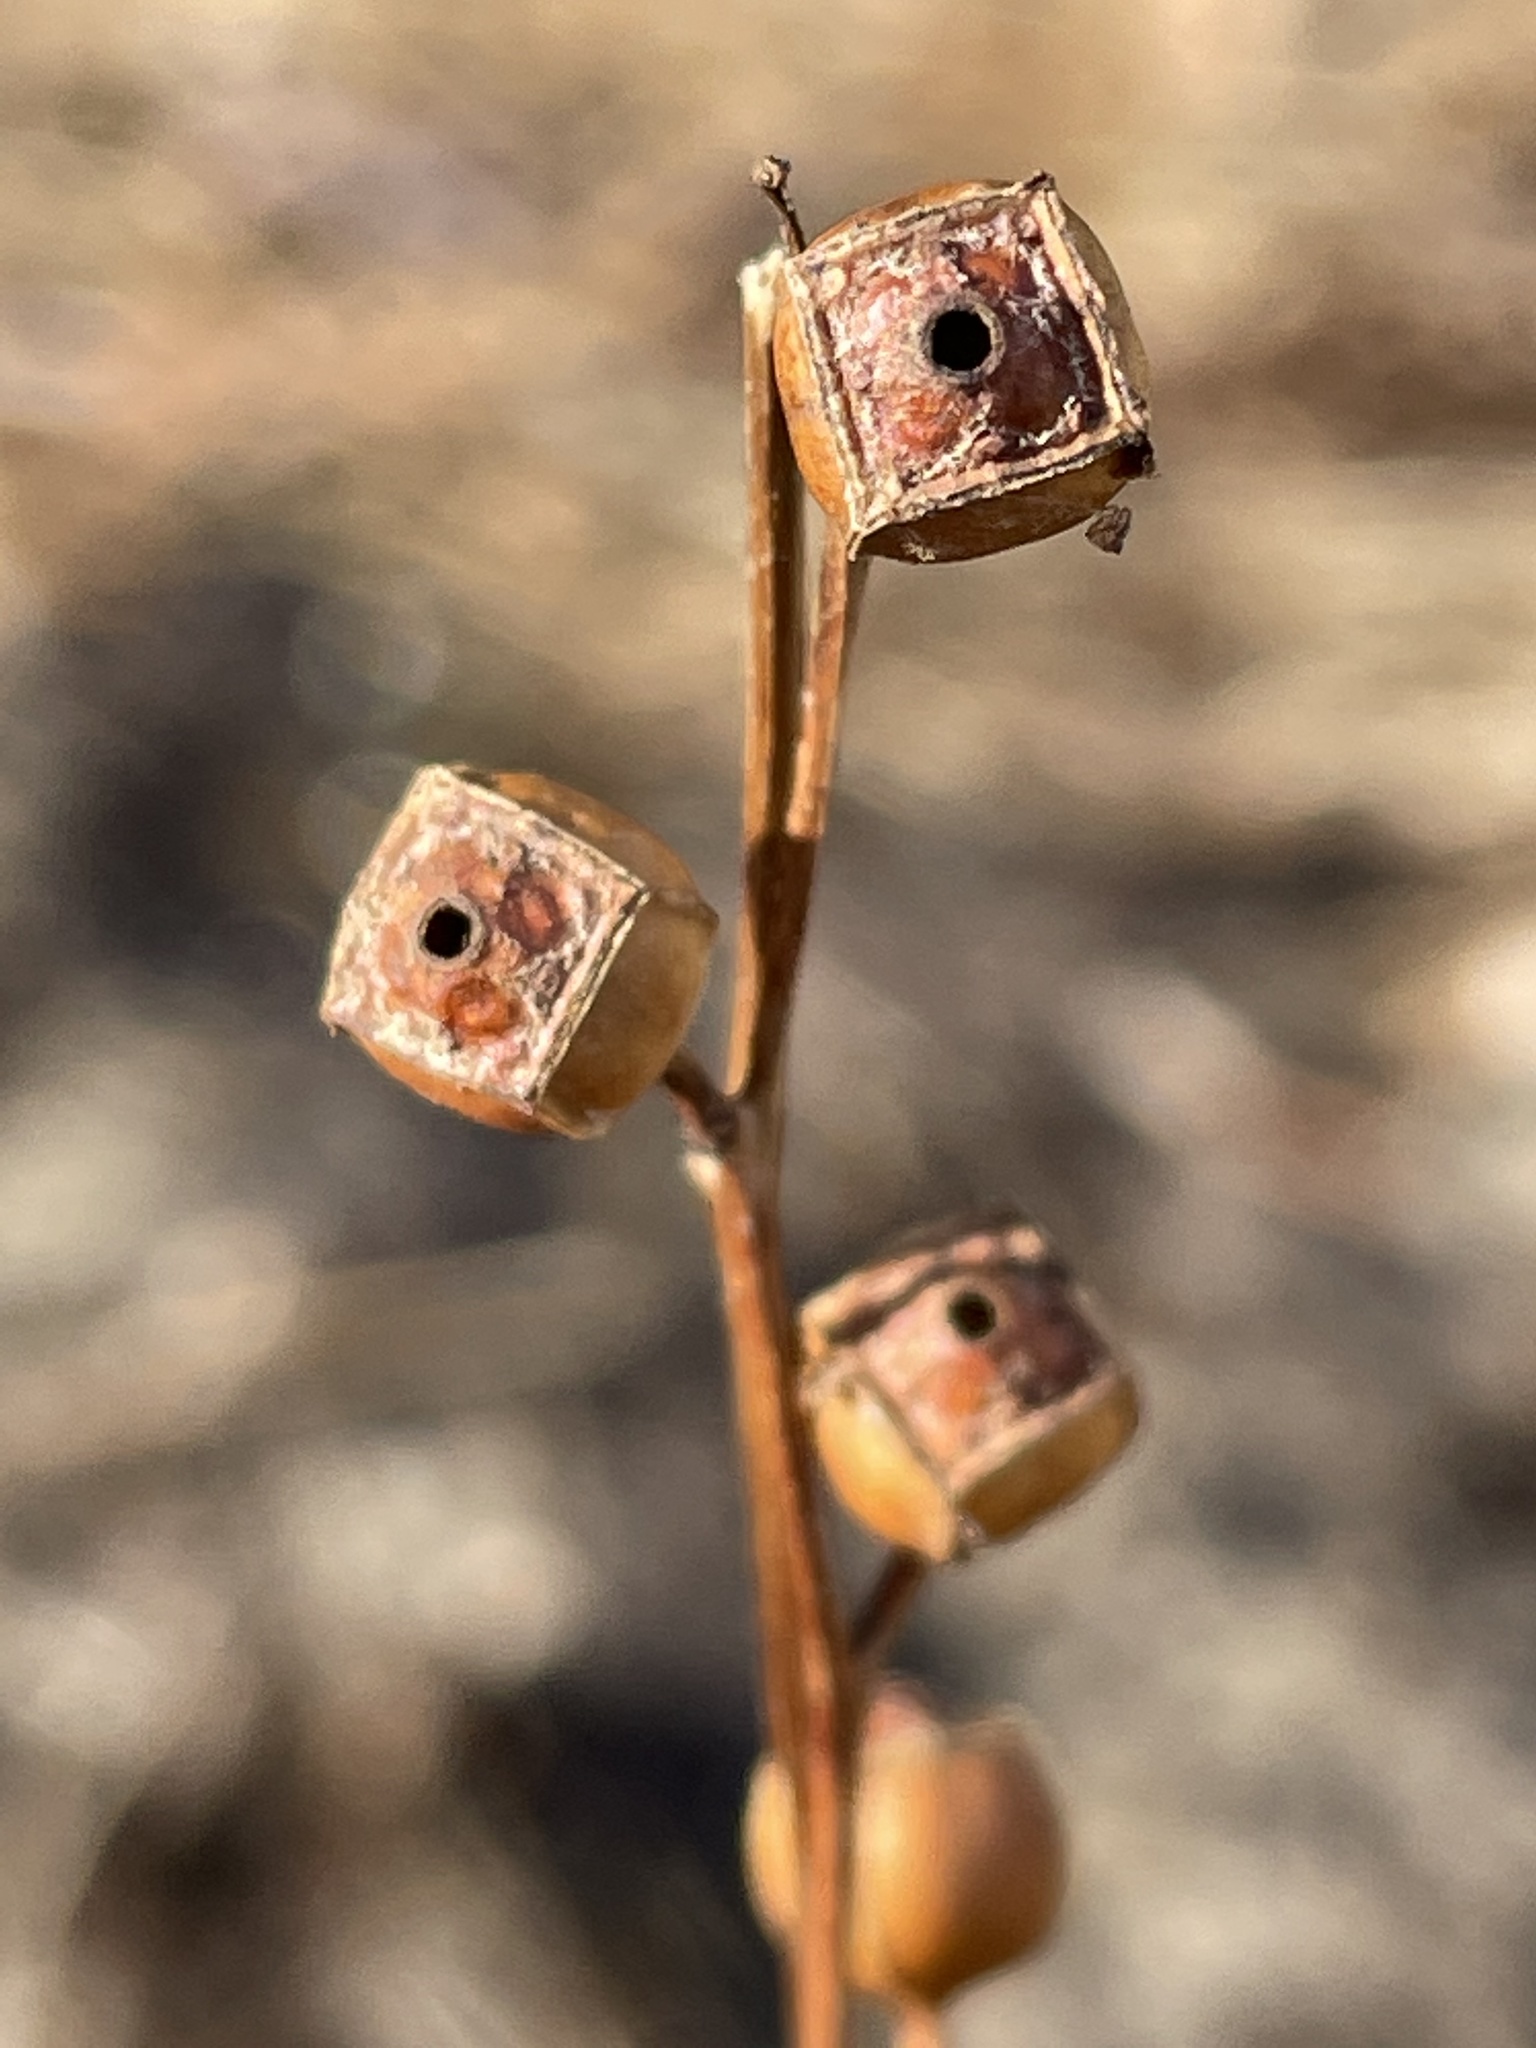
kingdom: Plantae
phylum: Tracheophyta
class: Magnoliopsida
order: Myrtales
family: Onagraceae
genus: Ludwigia
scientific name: Ludwigia alternifolia
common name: Rattlebox
